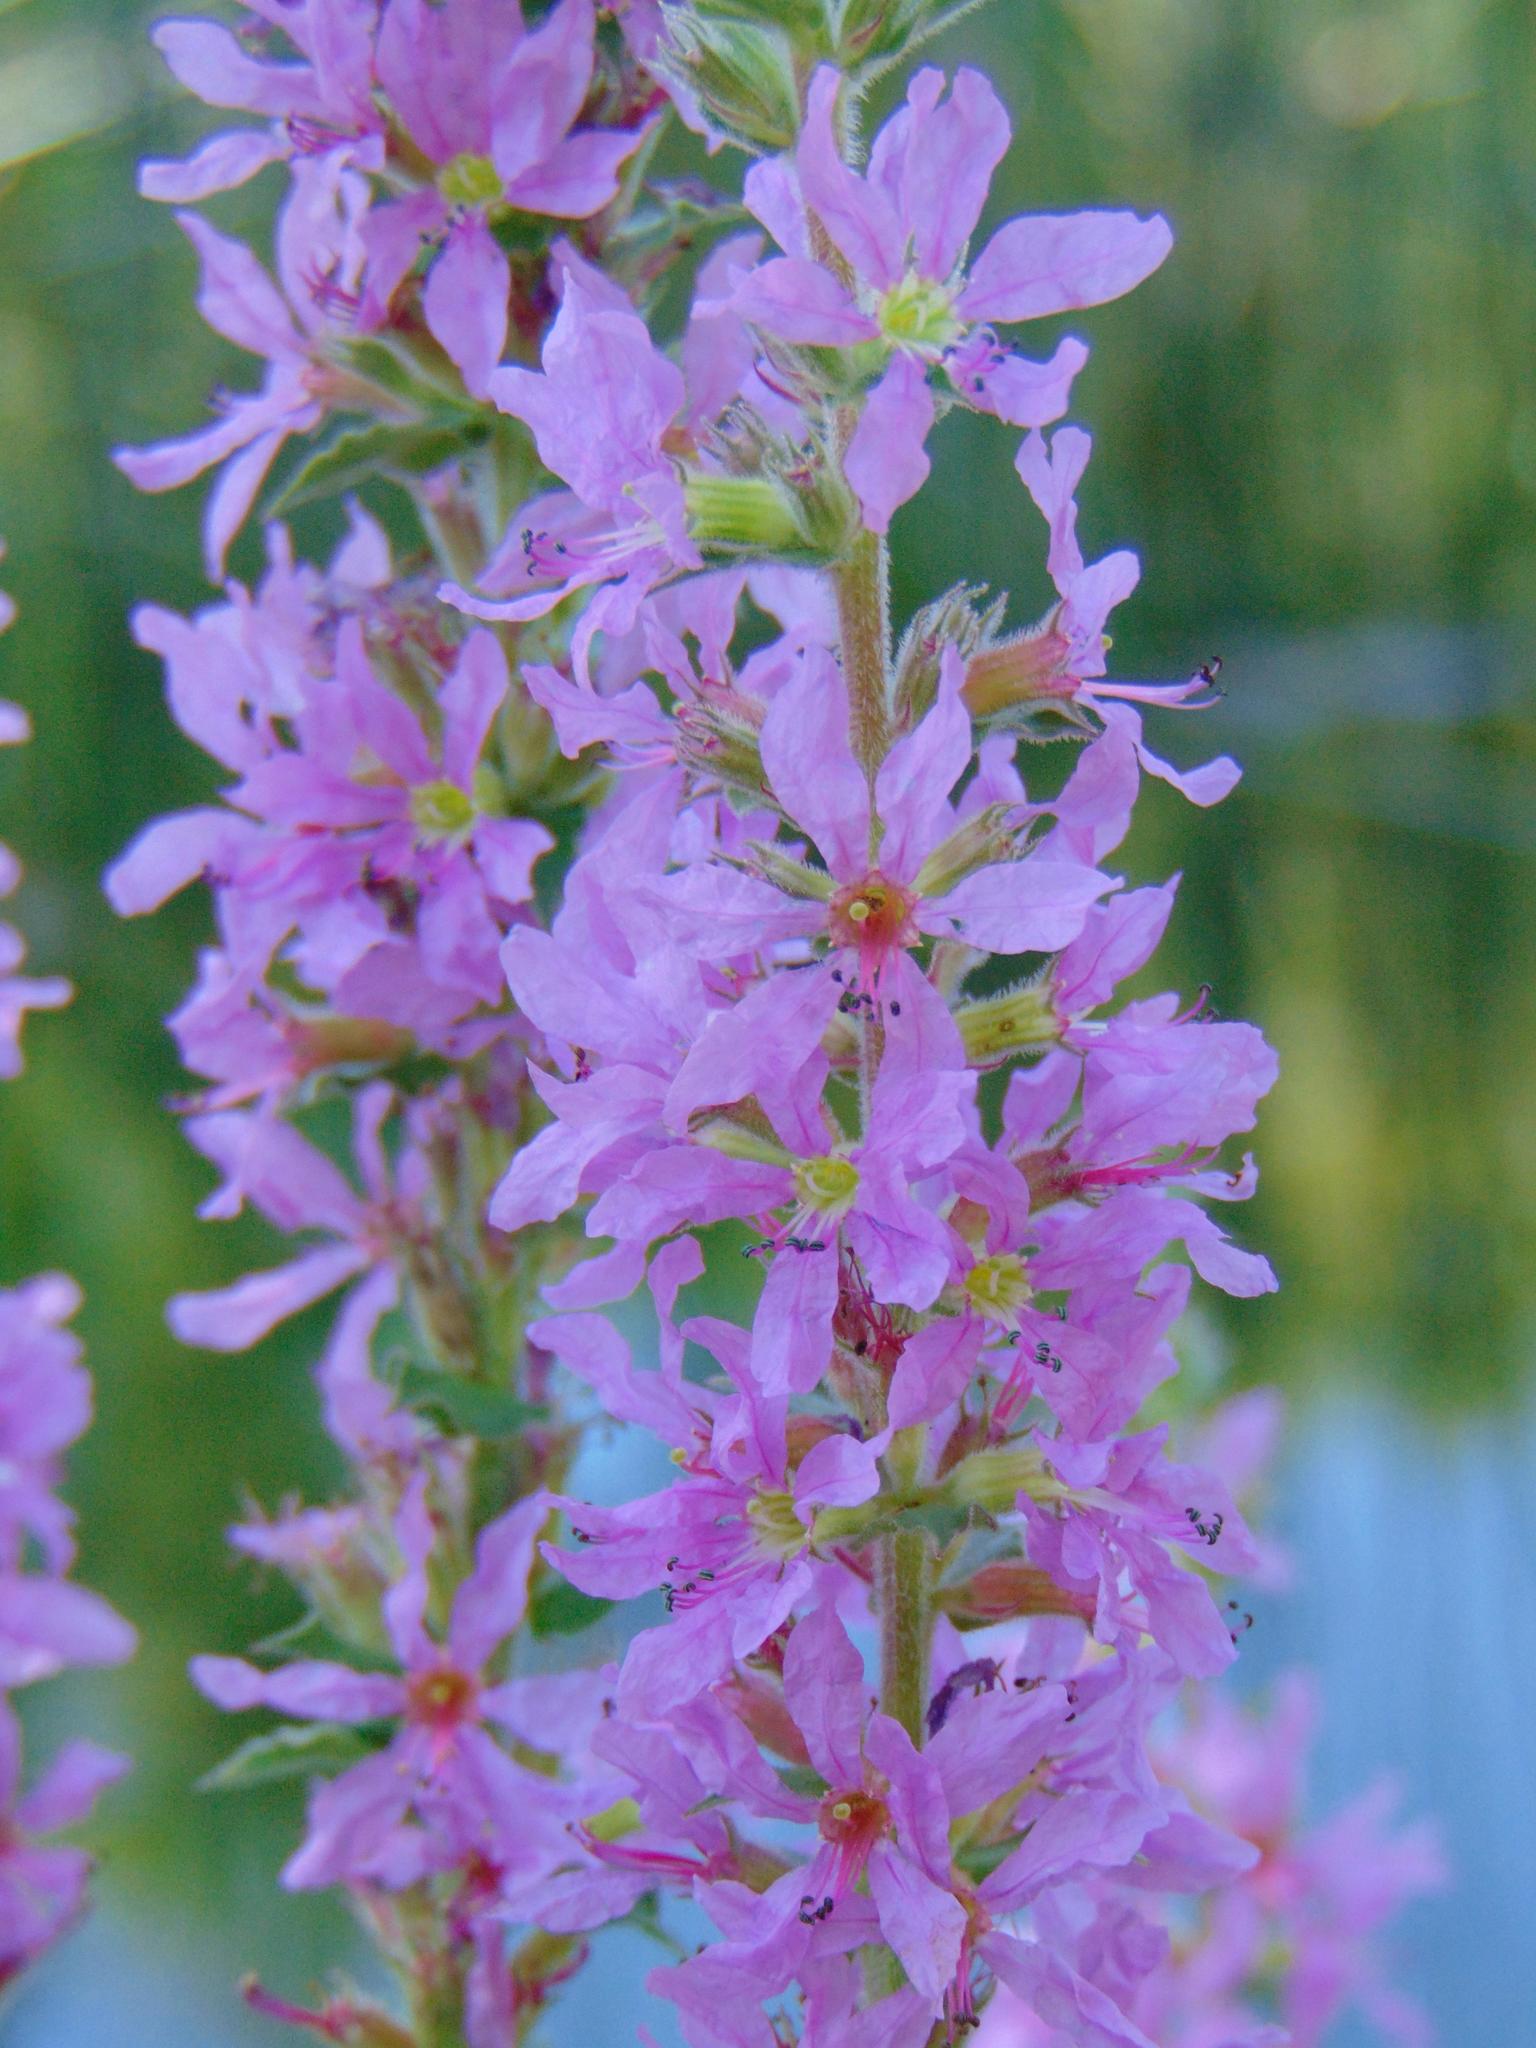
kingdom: Plantae
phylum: Tracheophyta
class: Magnoliopsida
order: Myrtales
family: Lythraceae
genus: Lythrum
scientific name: Lythrum salicaria
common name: Purple loosestrife
